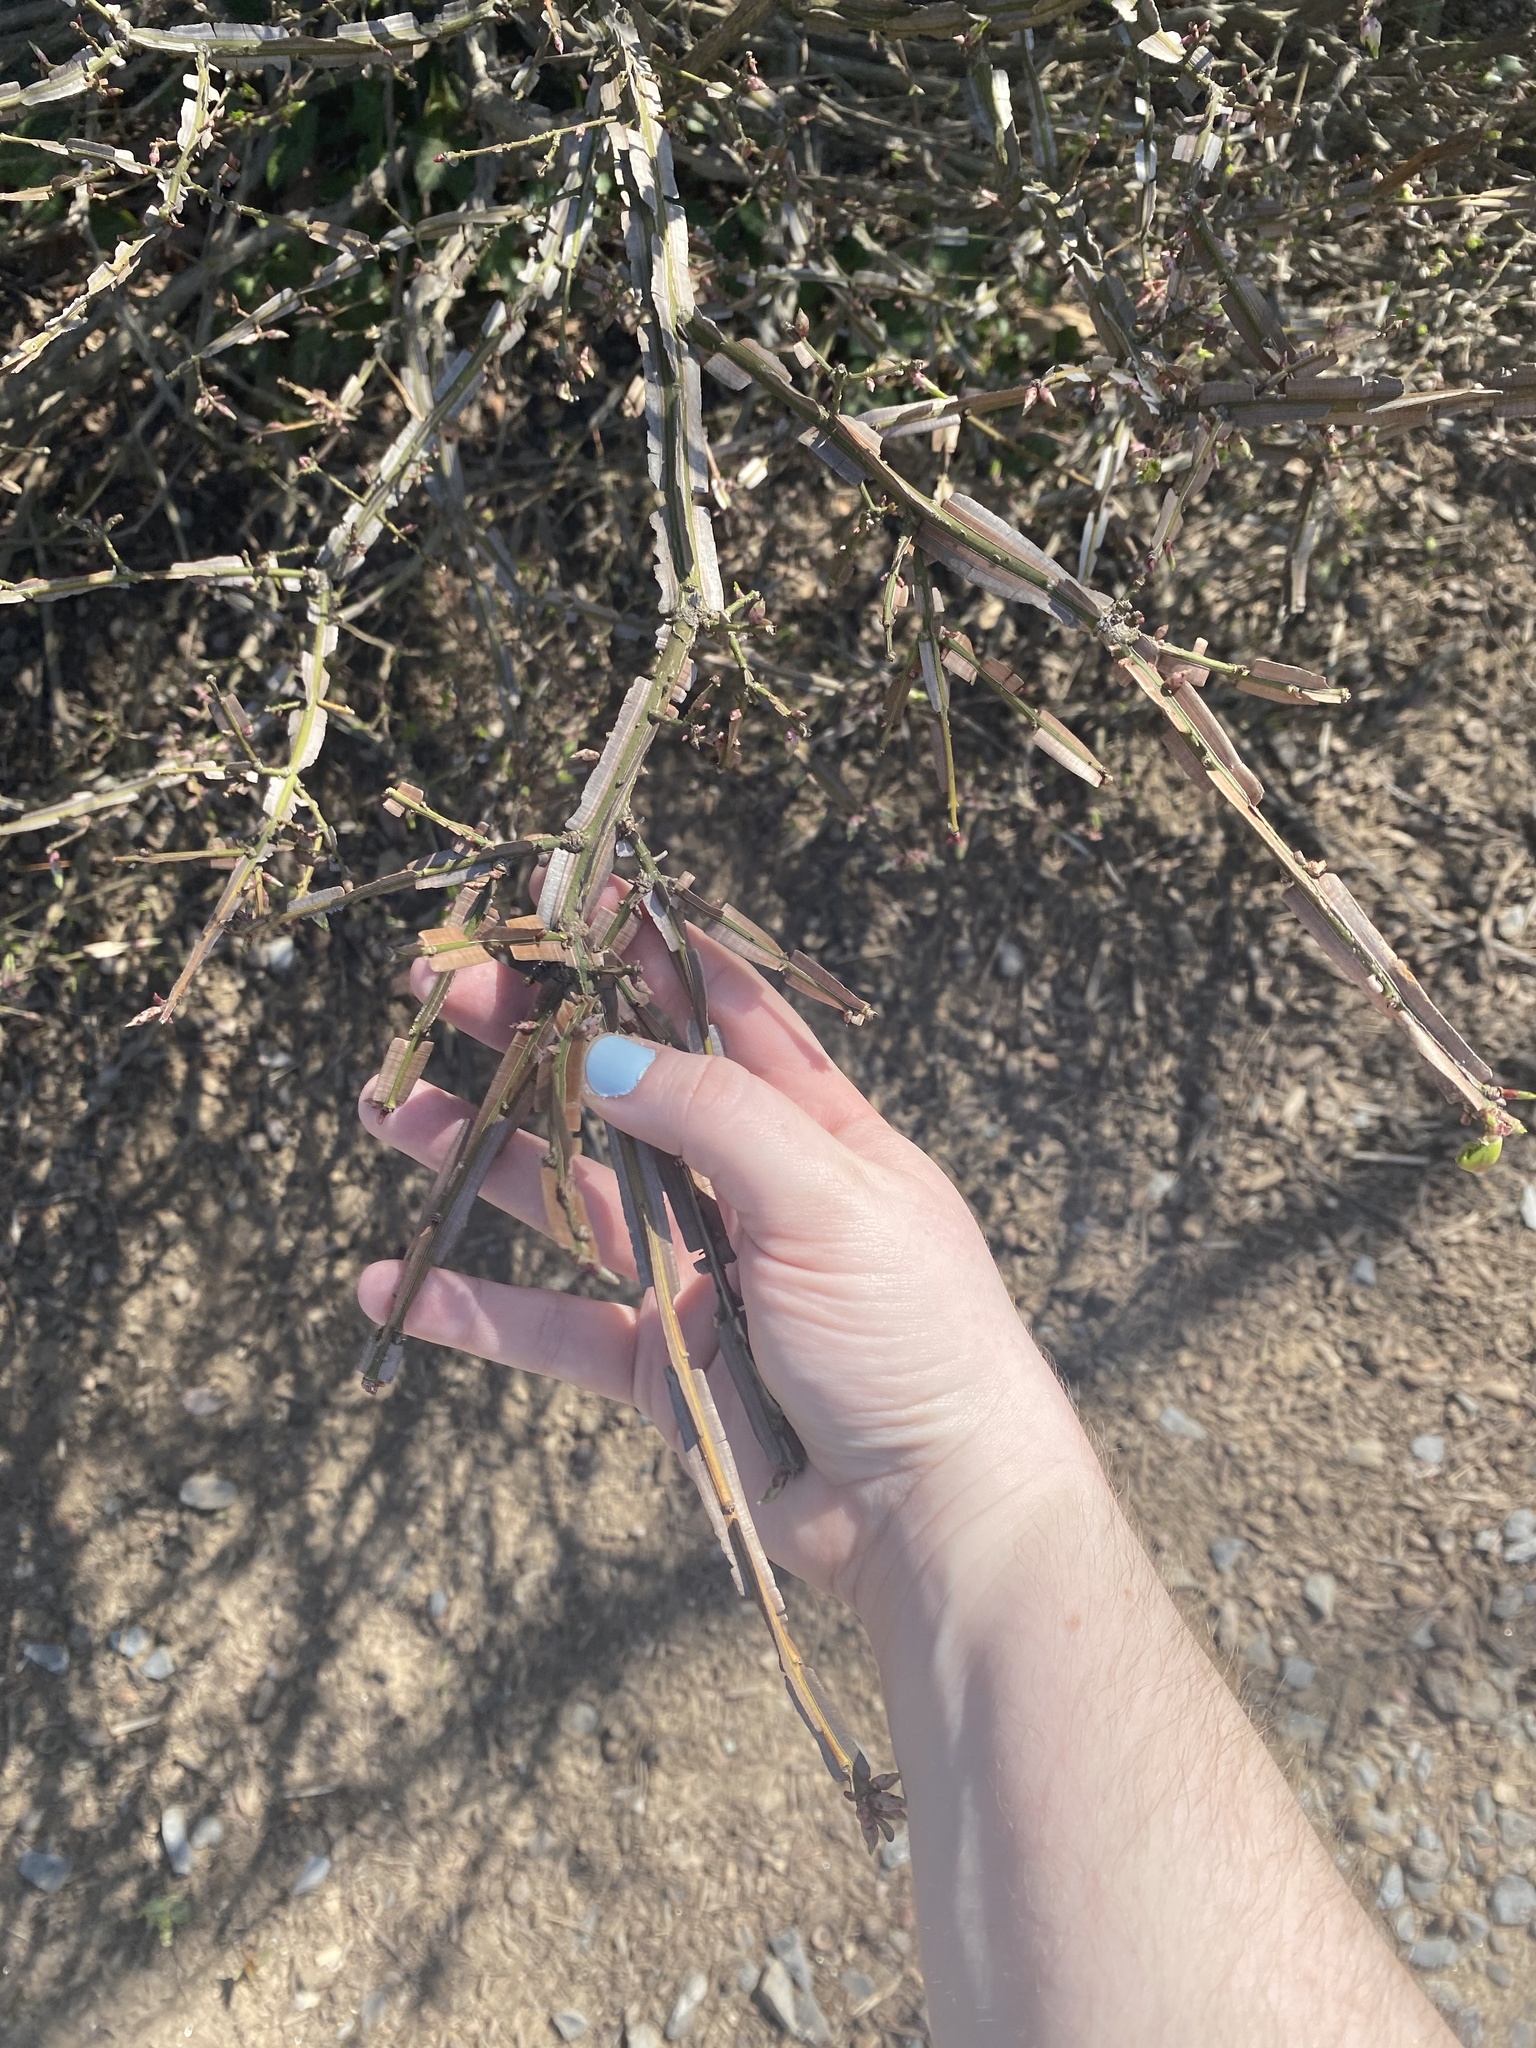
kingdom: Plantae
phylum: Tracheophyta
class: Magnoliopsida
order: Celastrales
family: Celastraceae
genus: Euonymus
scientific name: Euonymus alatus
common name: Winged euonymus
